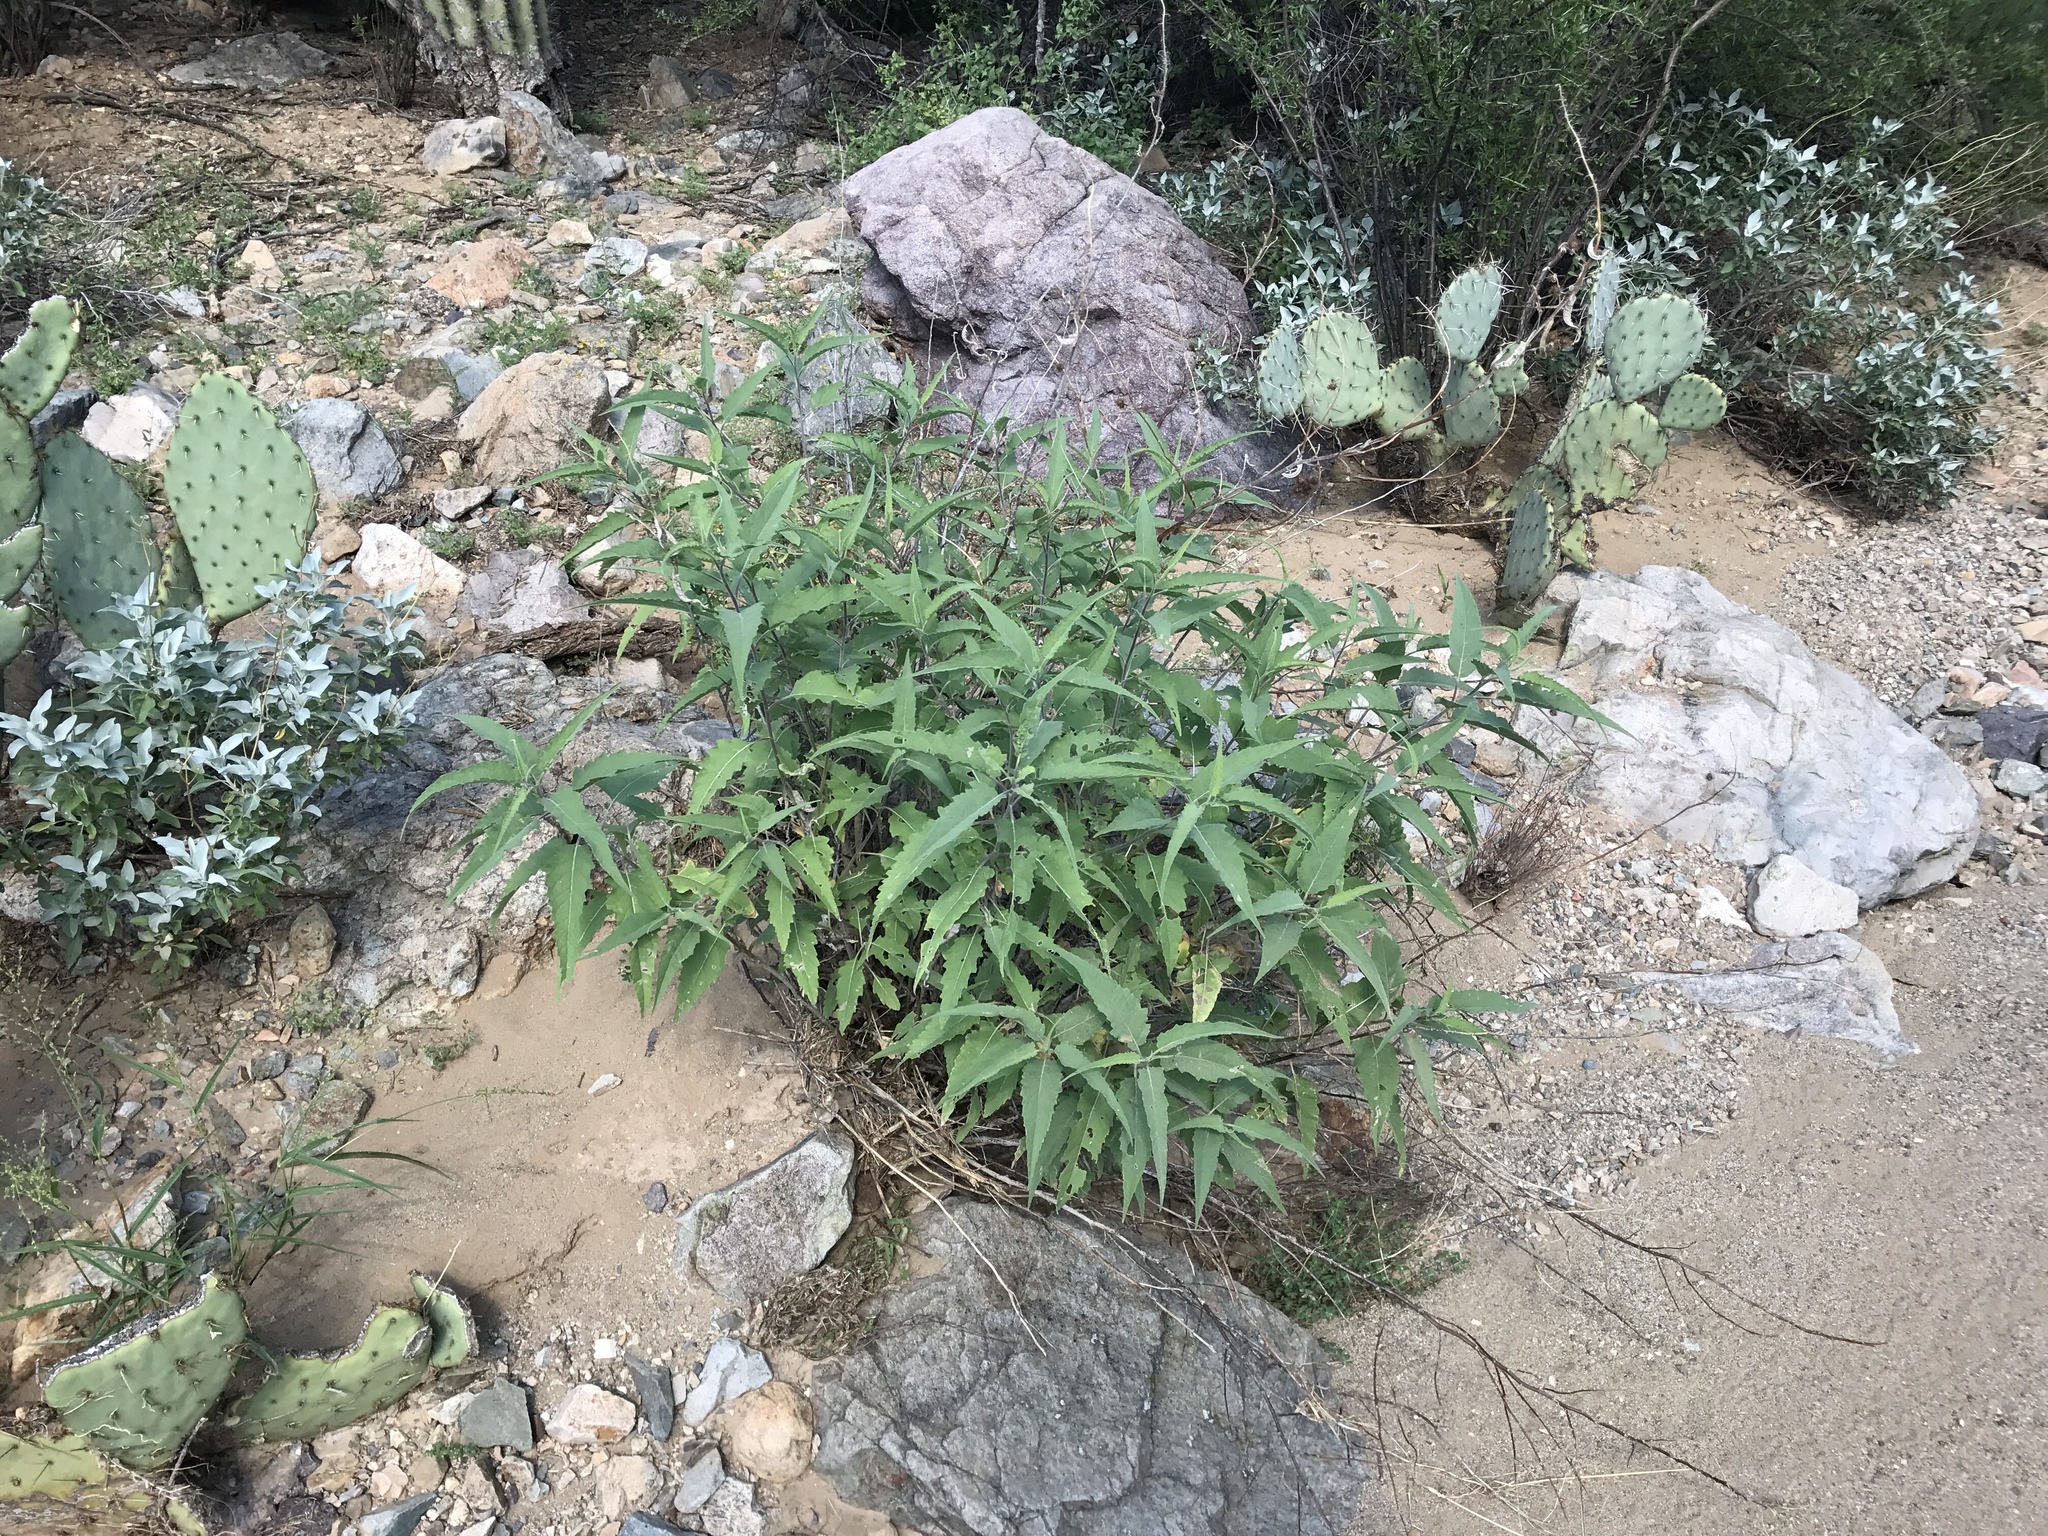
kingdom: Plantae
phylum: Tracheophyta
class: Magnoliopsida
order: Asterales
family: Asteraceae
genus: Ambrosia
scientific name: Ambrosia ambrosioides
